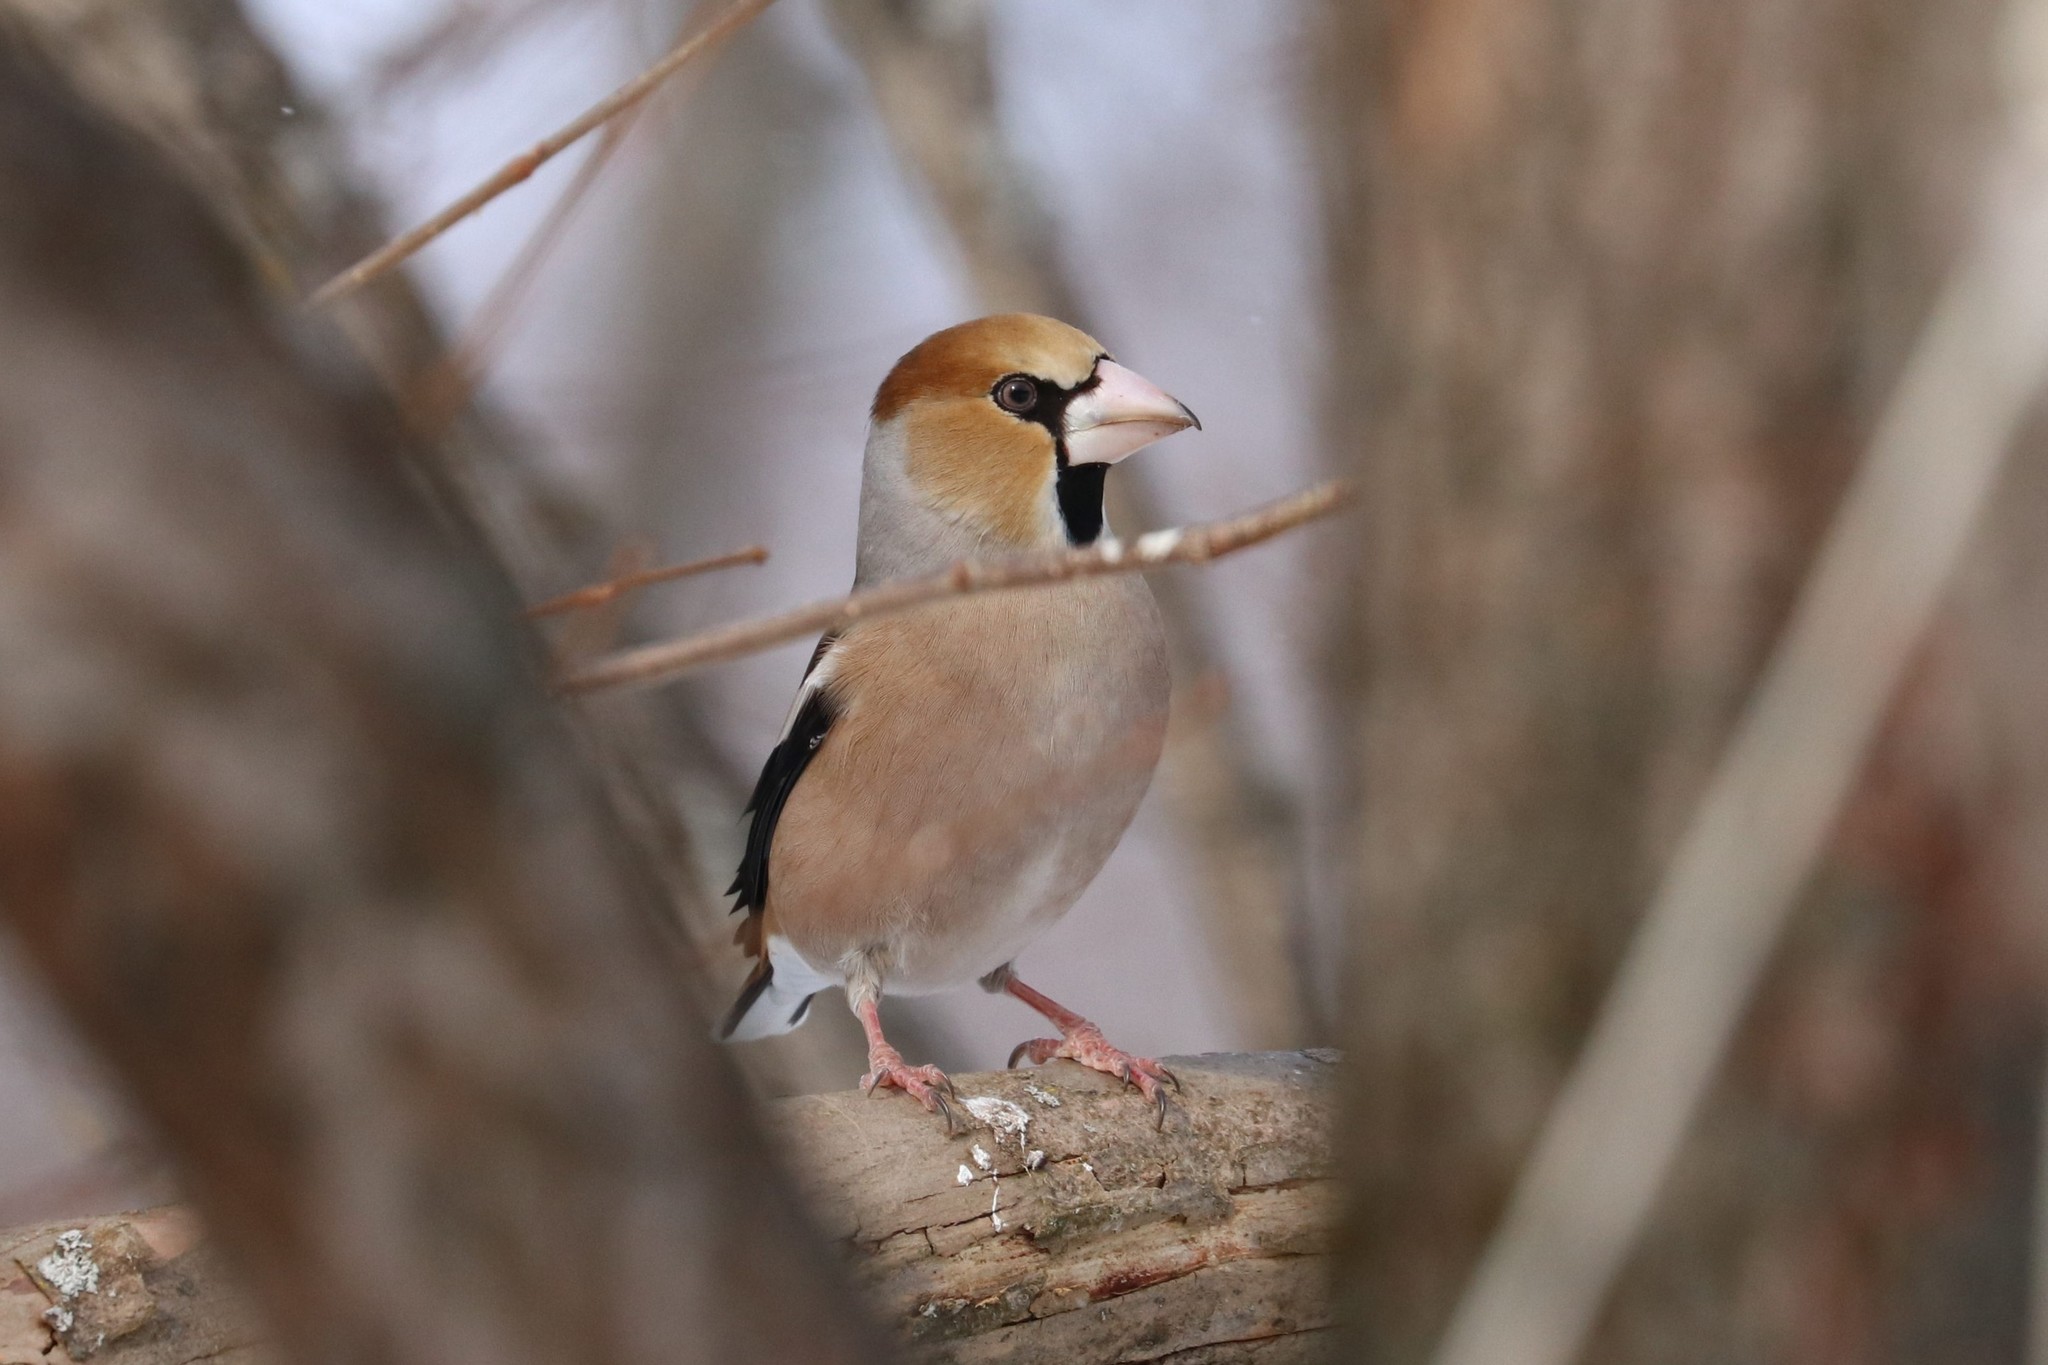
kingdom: Animalia
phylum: Chordata
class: Aves
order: Passeriformes
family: Fringillidae
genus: Coccothraustes
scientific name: Coccothraustes coccothraustes
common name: Hawfinch
